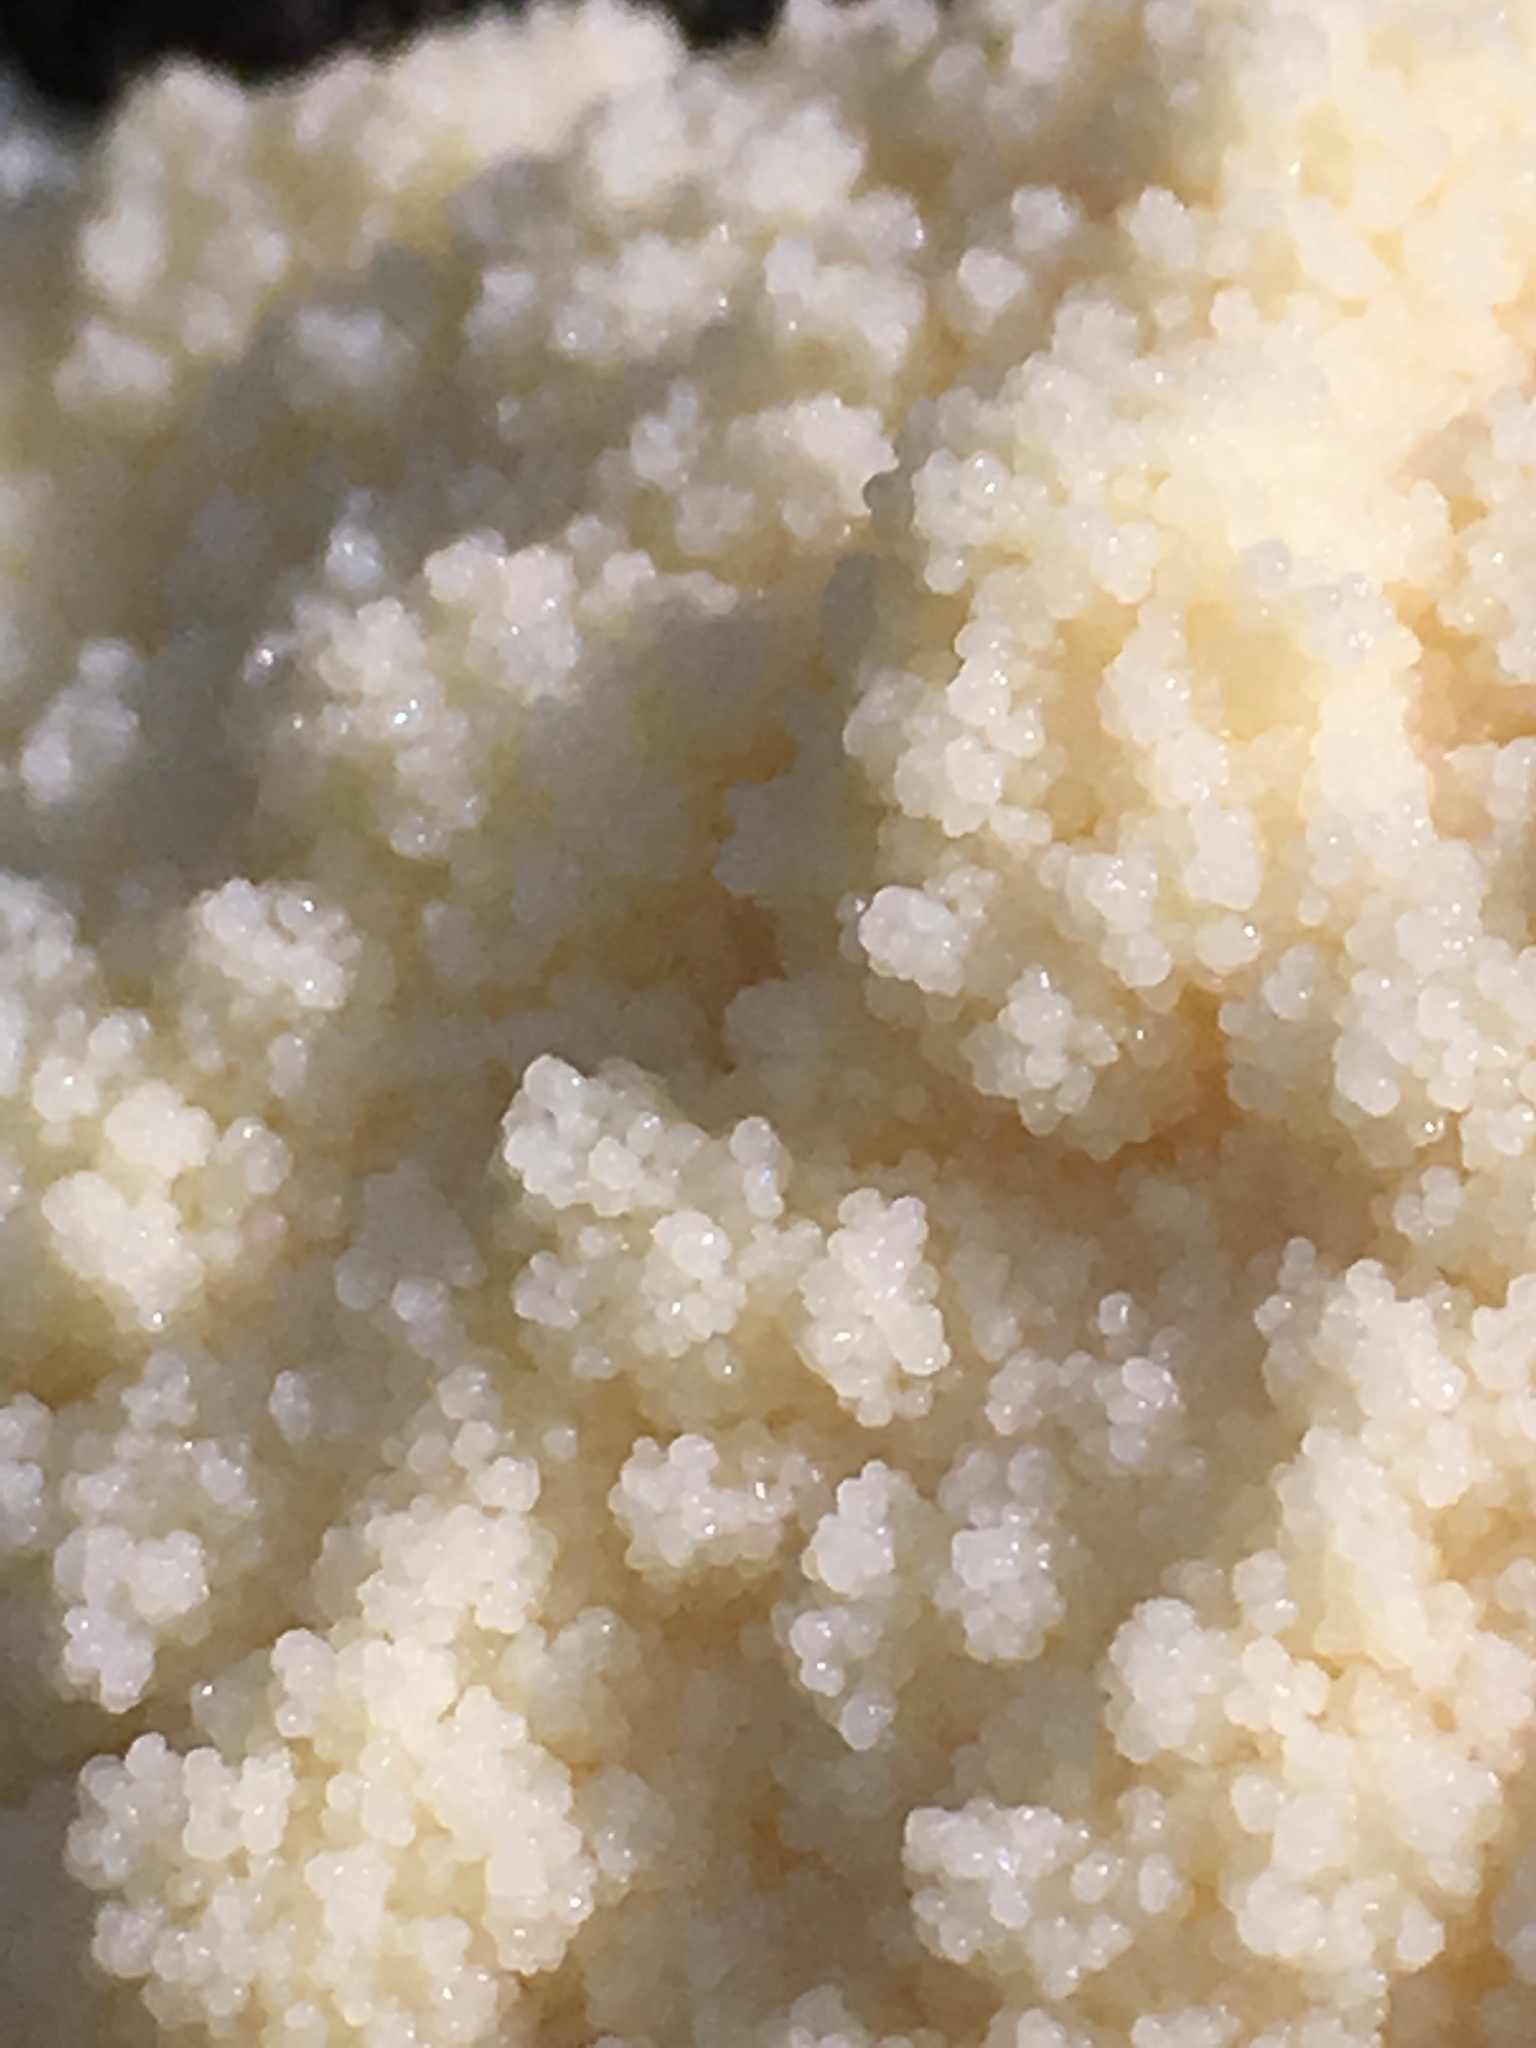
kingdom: Protozoa
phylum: Mycetozoa
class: Myxomycetes
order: Cribrariales
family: Tubiferaceae
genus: Reticularia
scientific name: Reticularia lycoperdon
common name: False puffball
